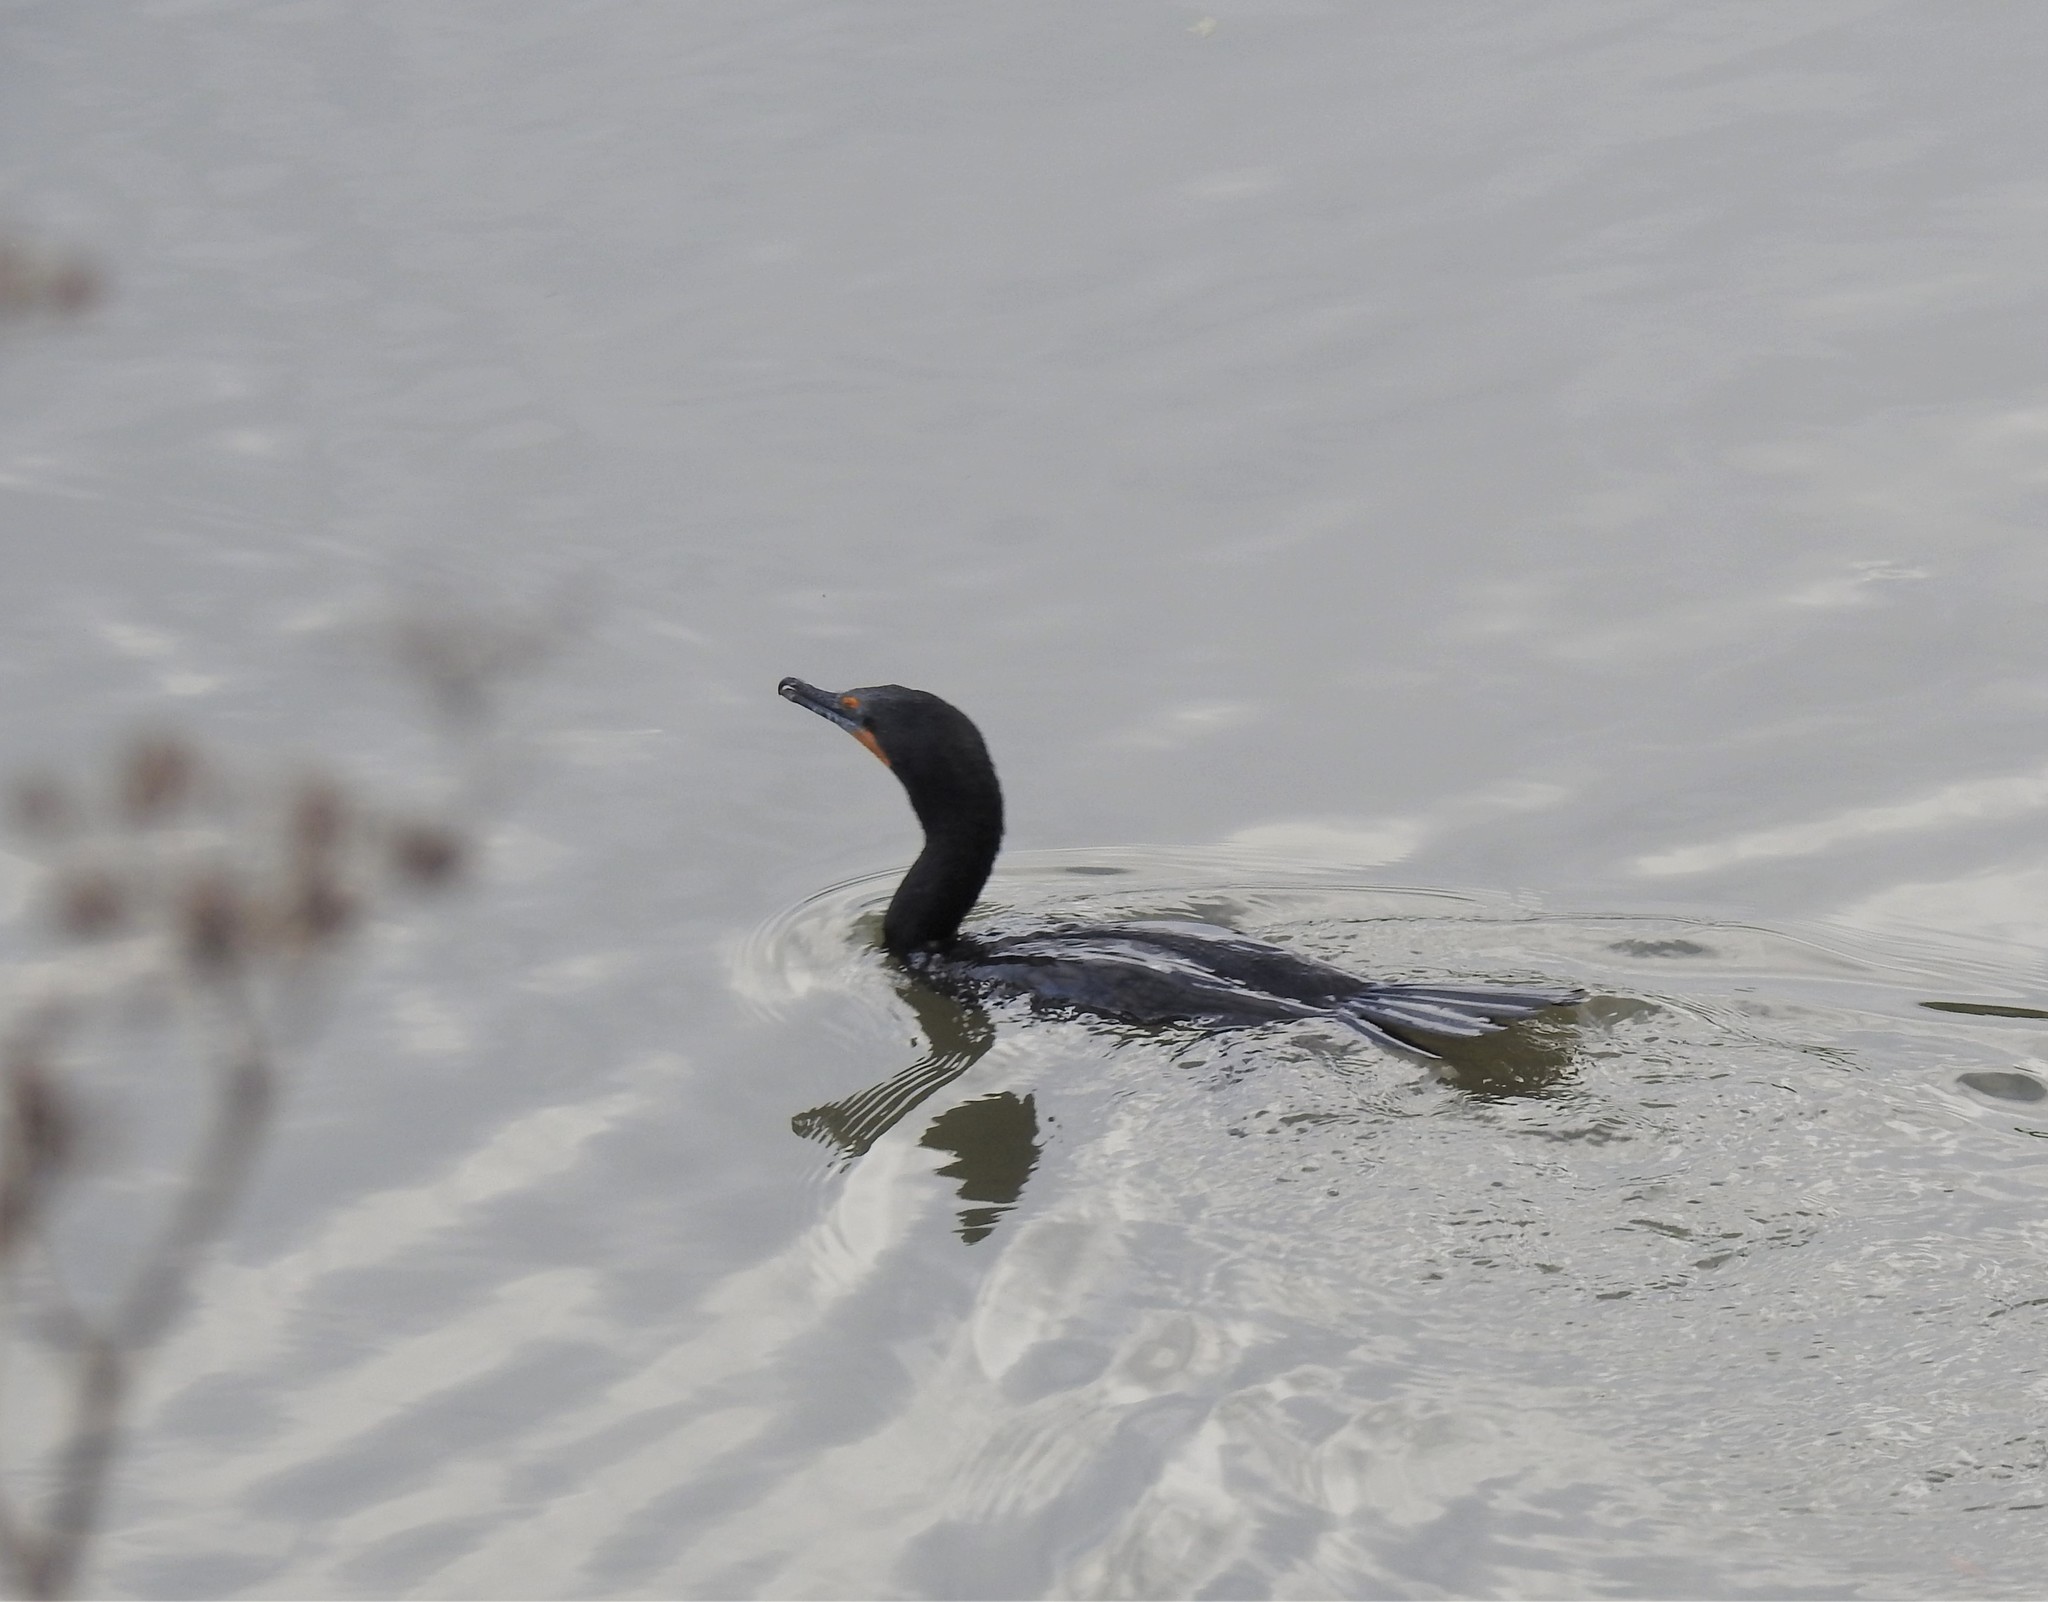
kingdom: Animalia
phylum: Chordata
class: Aves
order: Suliformes
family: Phalacrocoracidae
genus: Phalacrocorax
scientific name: Phalacrocorax auritus
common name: Double-crested cormorant
